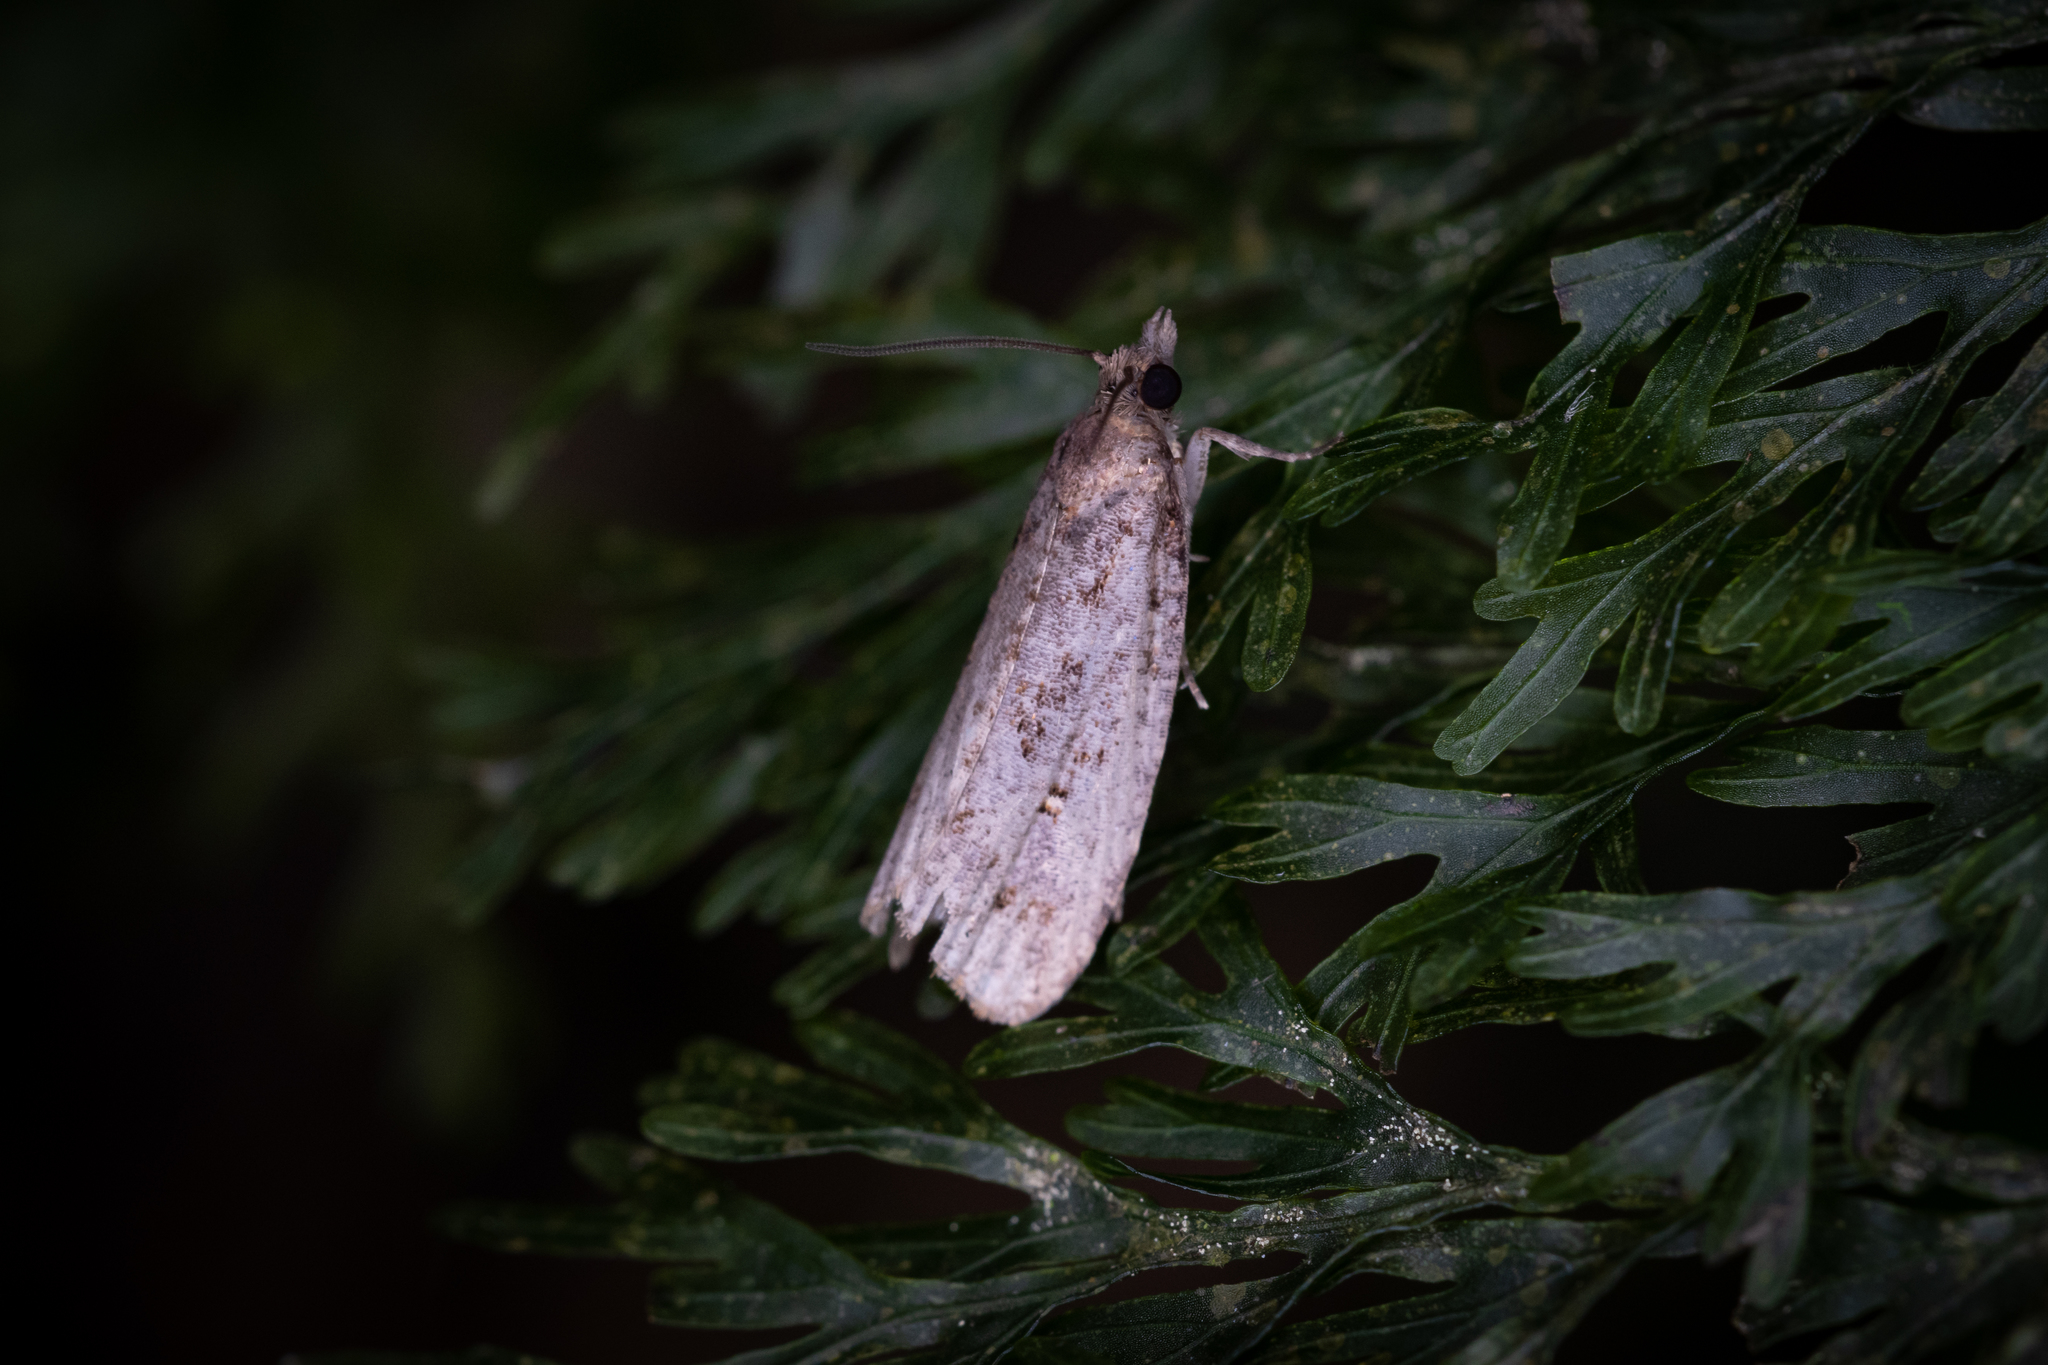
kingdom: Animalia
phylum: Arthropoda
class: Insecta
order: Lepidoptera
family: Tortricidae
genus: Cryptaspasma
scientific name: Cryptaspasma querula
